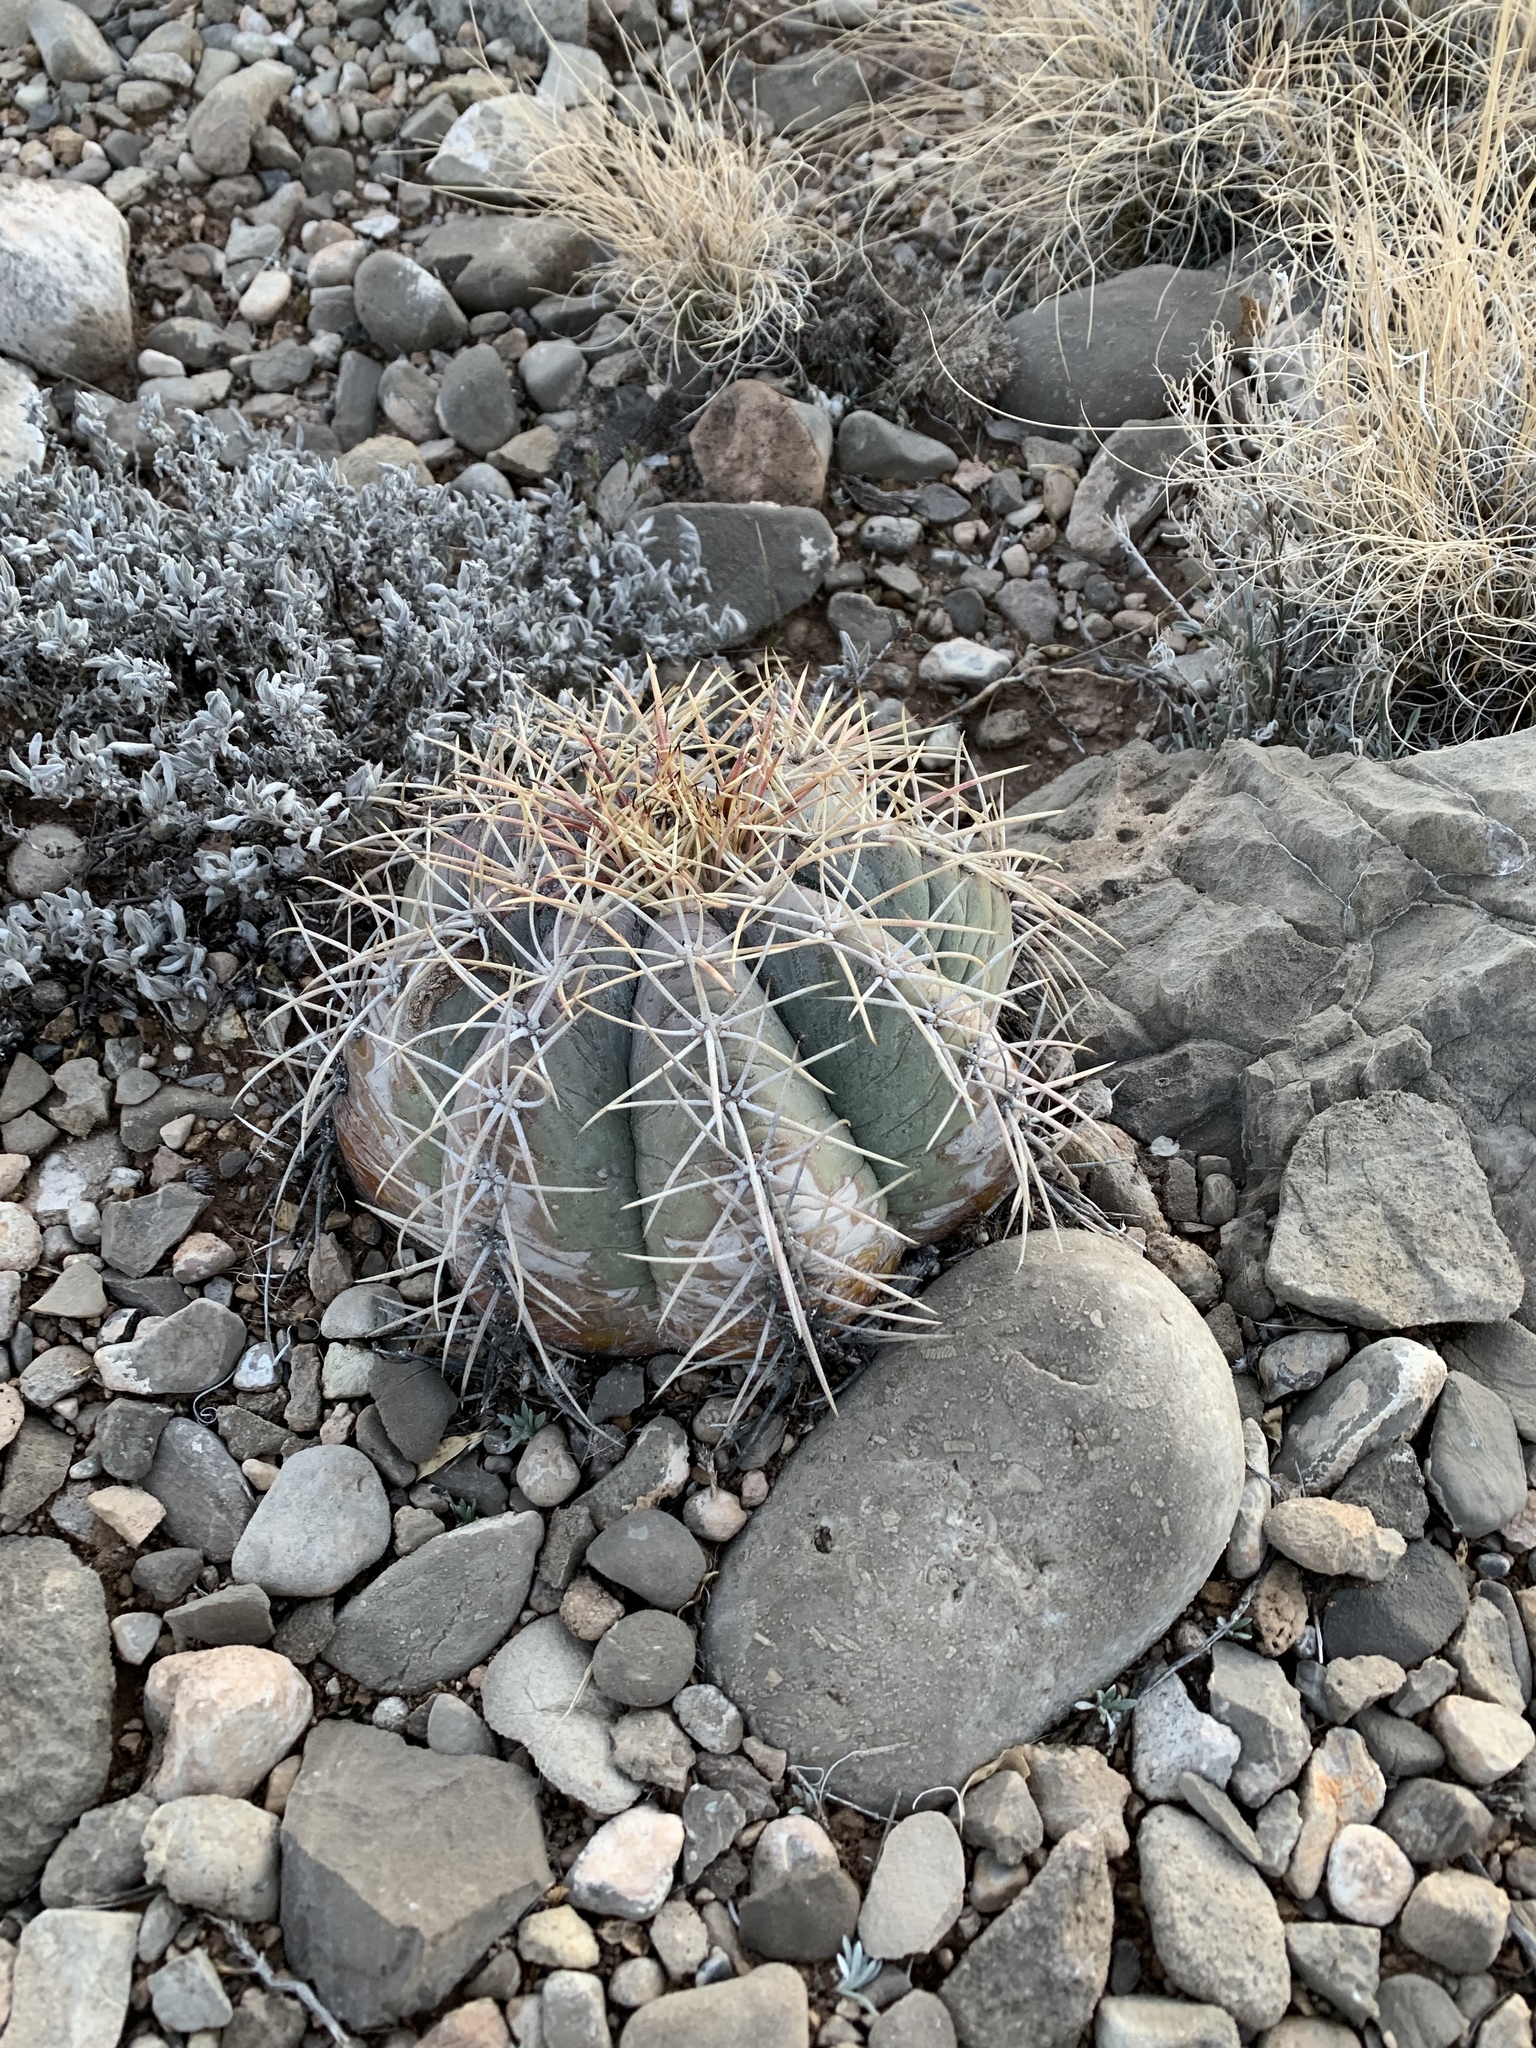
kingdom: Plantae
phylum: Tracheophyta
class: Magnoliopsida
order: Caryophyllales
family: Cactaceae
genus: Echinocactus
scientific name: Echinocactus horizonthalonius
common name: Devilshead
